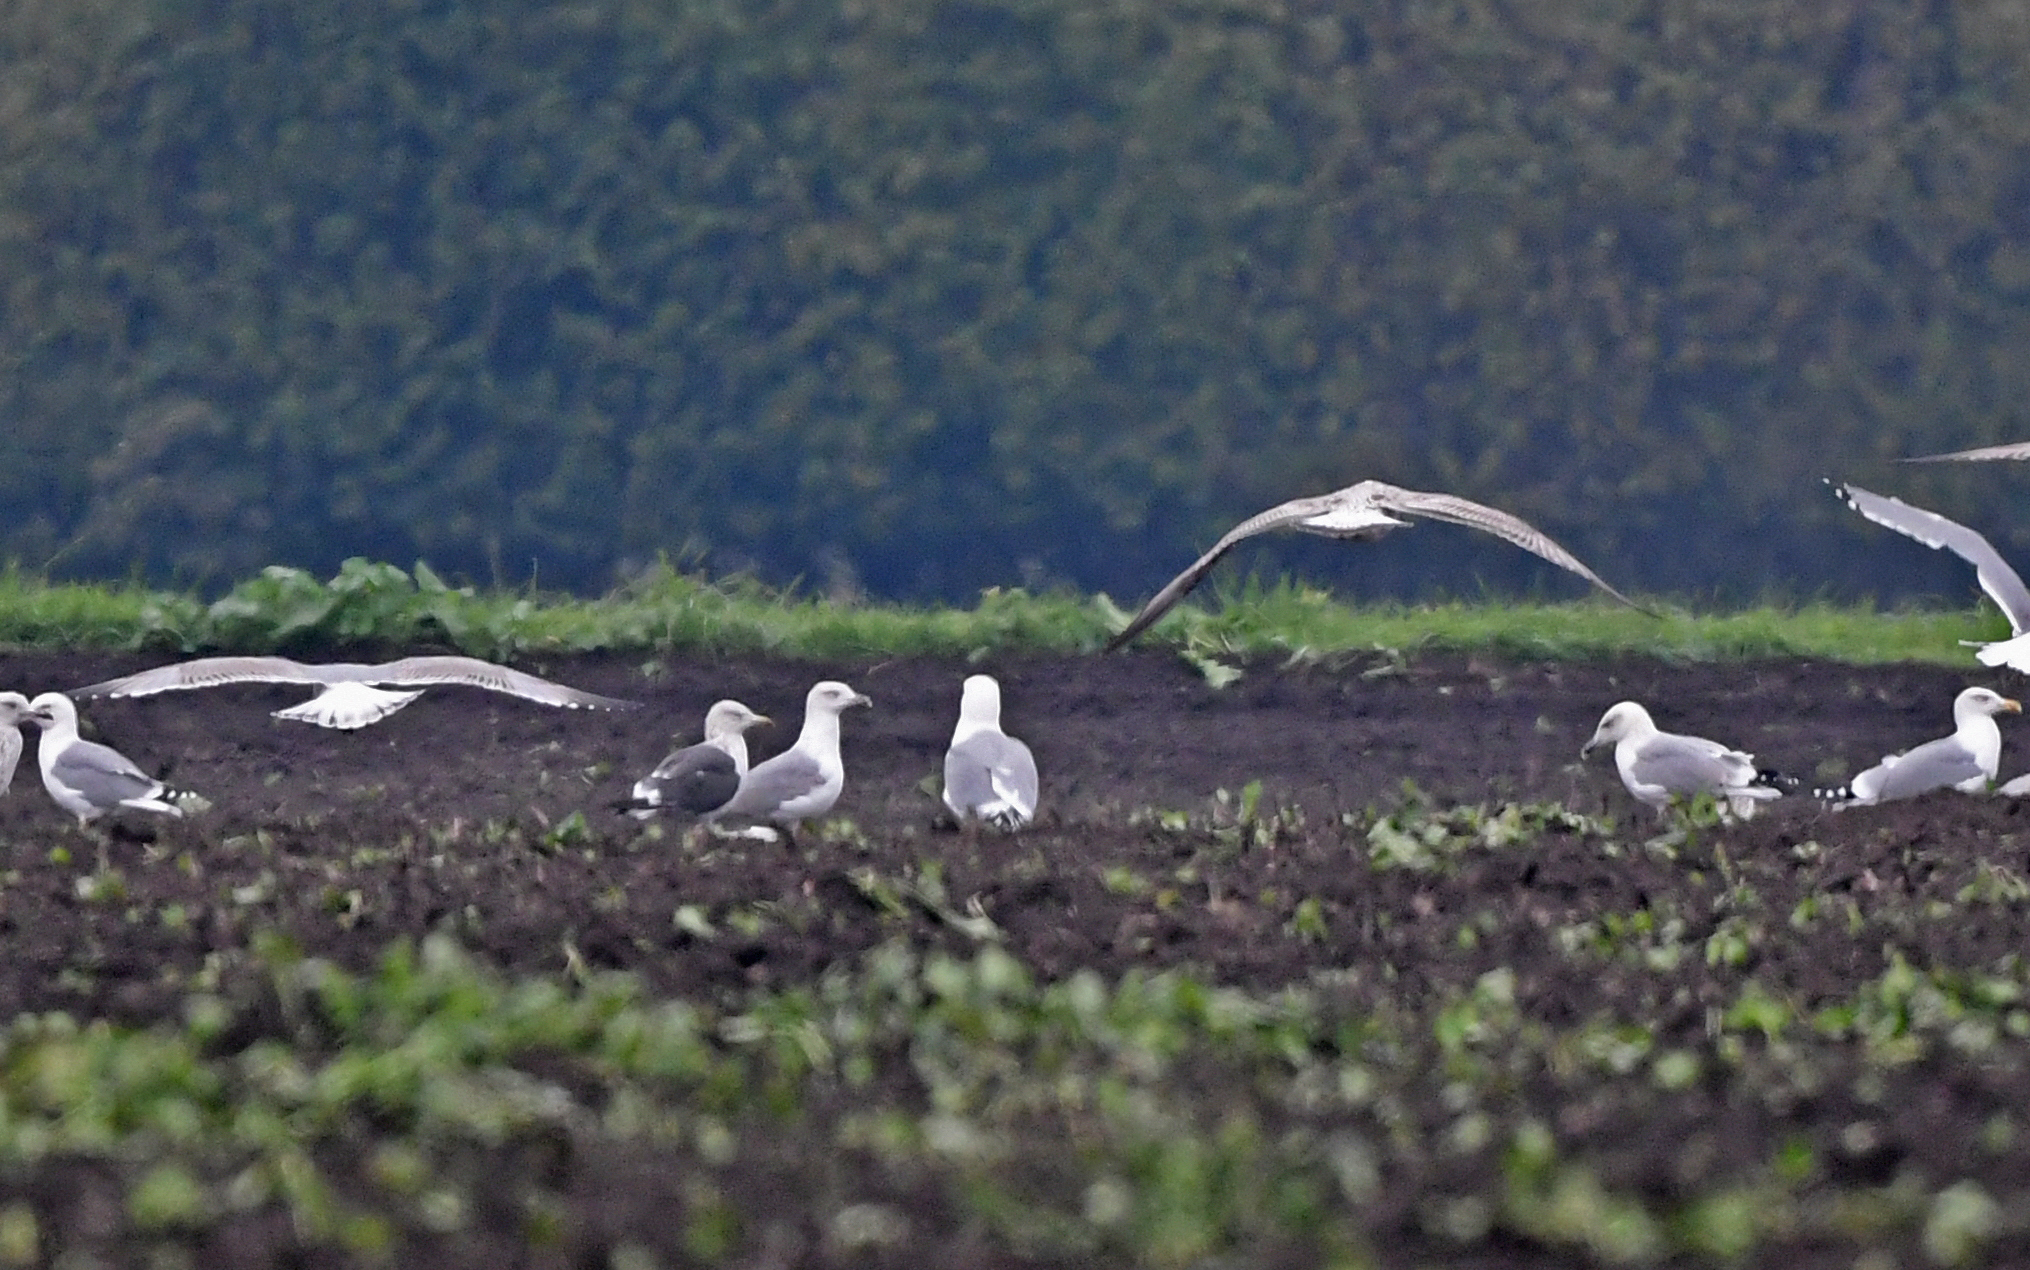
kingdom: Animalia
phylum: Chordata
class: Aves
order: Charadriiformes
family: Laridae
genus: Larus
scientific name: Larus fuscus
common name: Lesser black-backed gull
